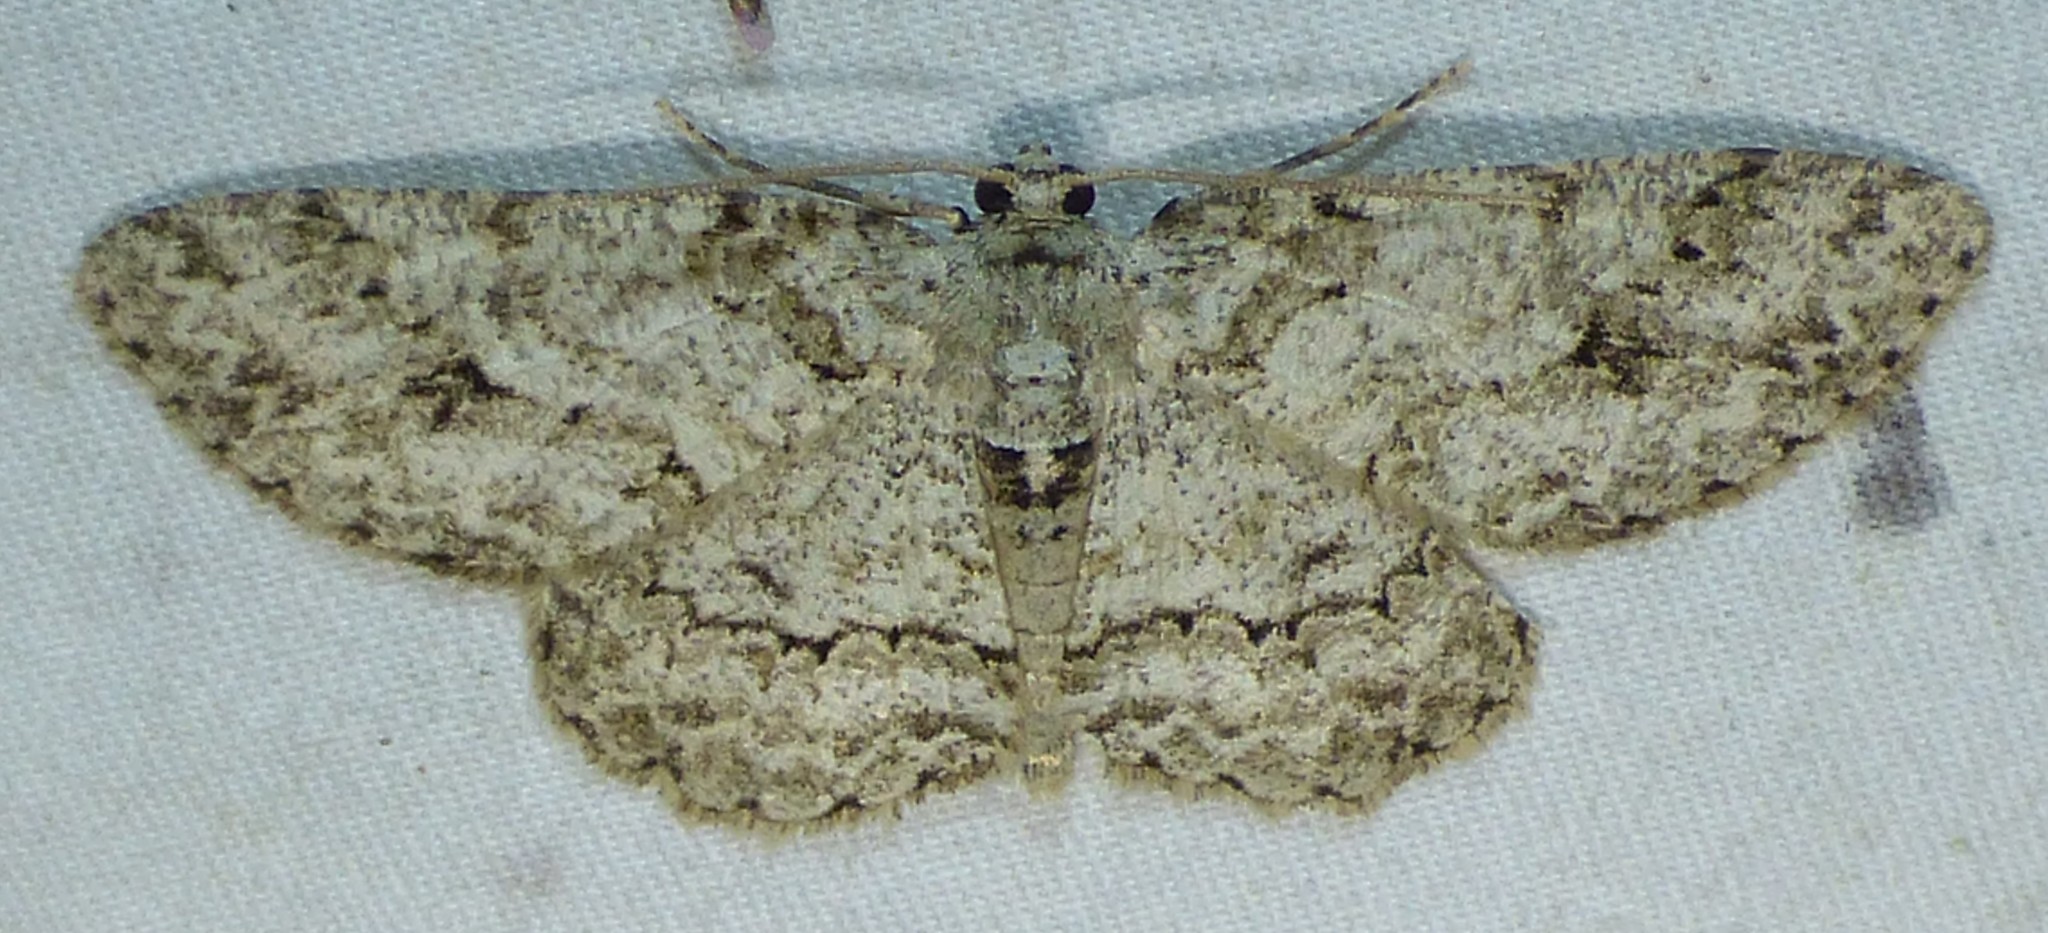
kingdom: Animalia
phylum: Arthropoda
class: Insecta
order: Lepidoptera
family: Geometridae
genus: Ectropis
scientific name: Ectropis crepuscularia
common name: Engrailed
